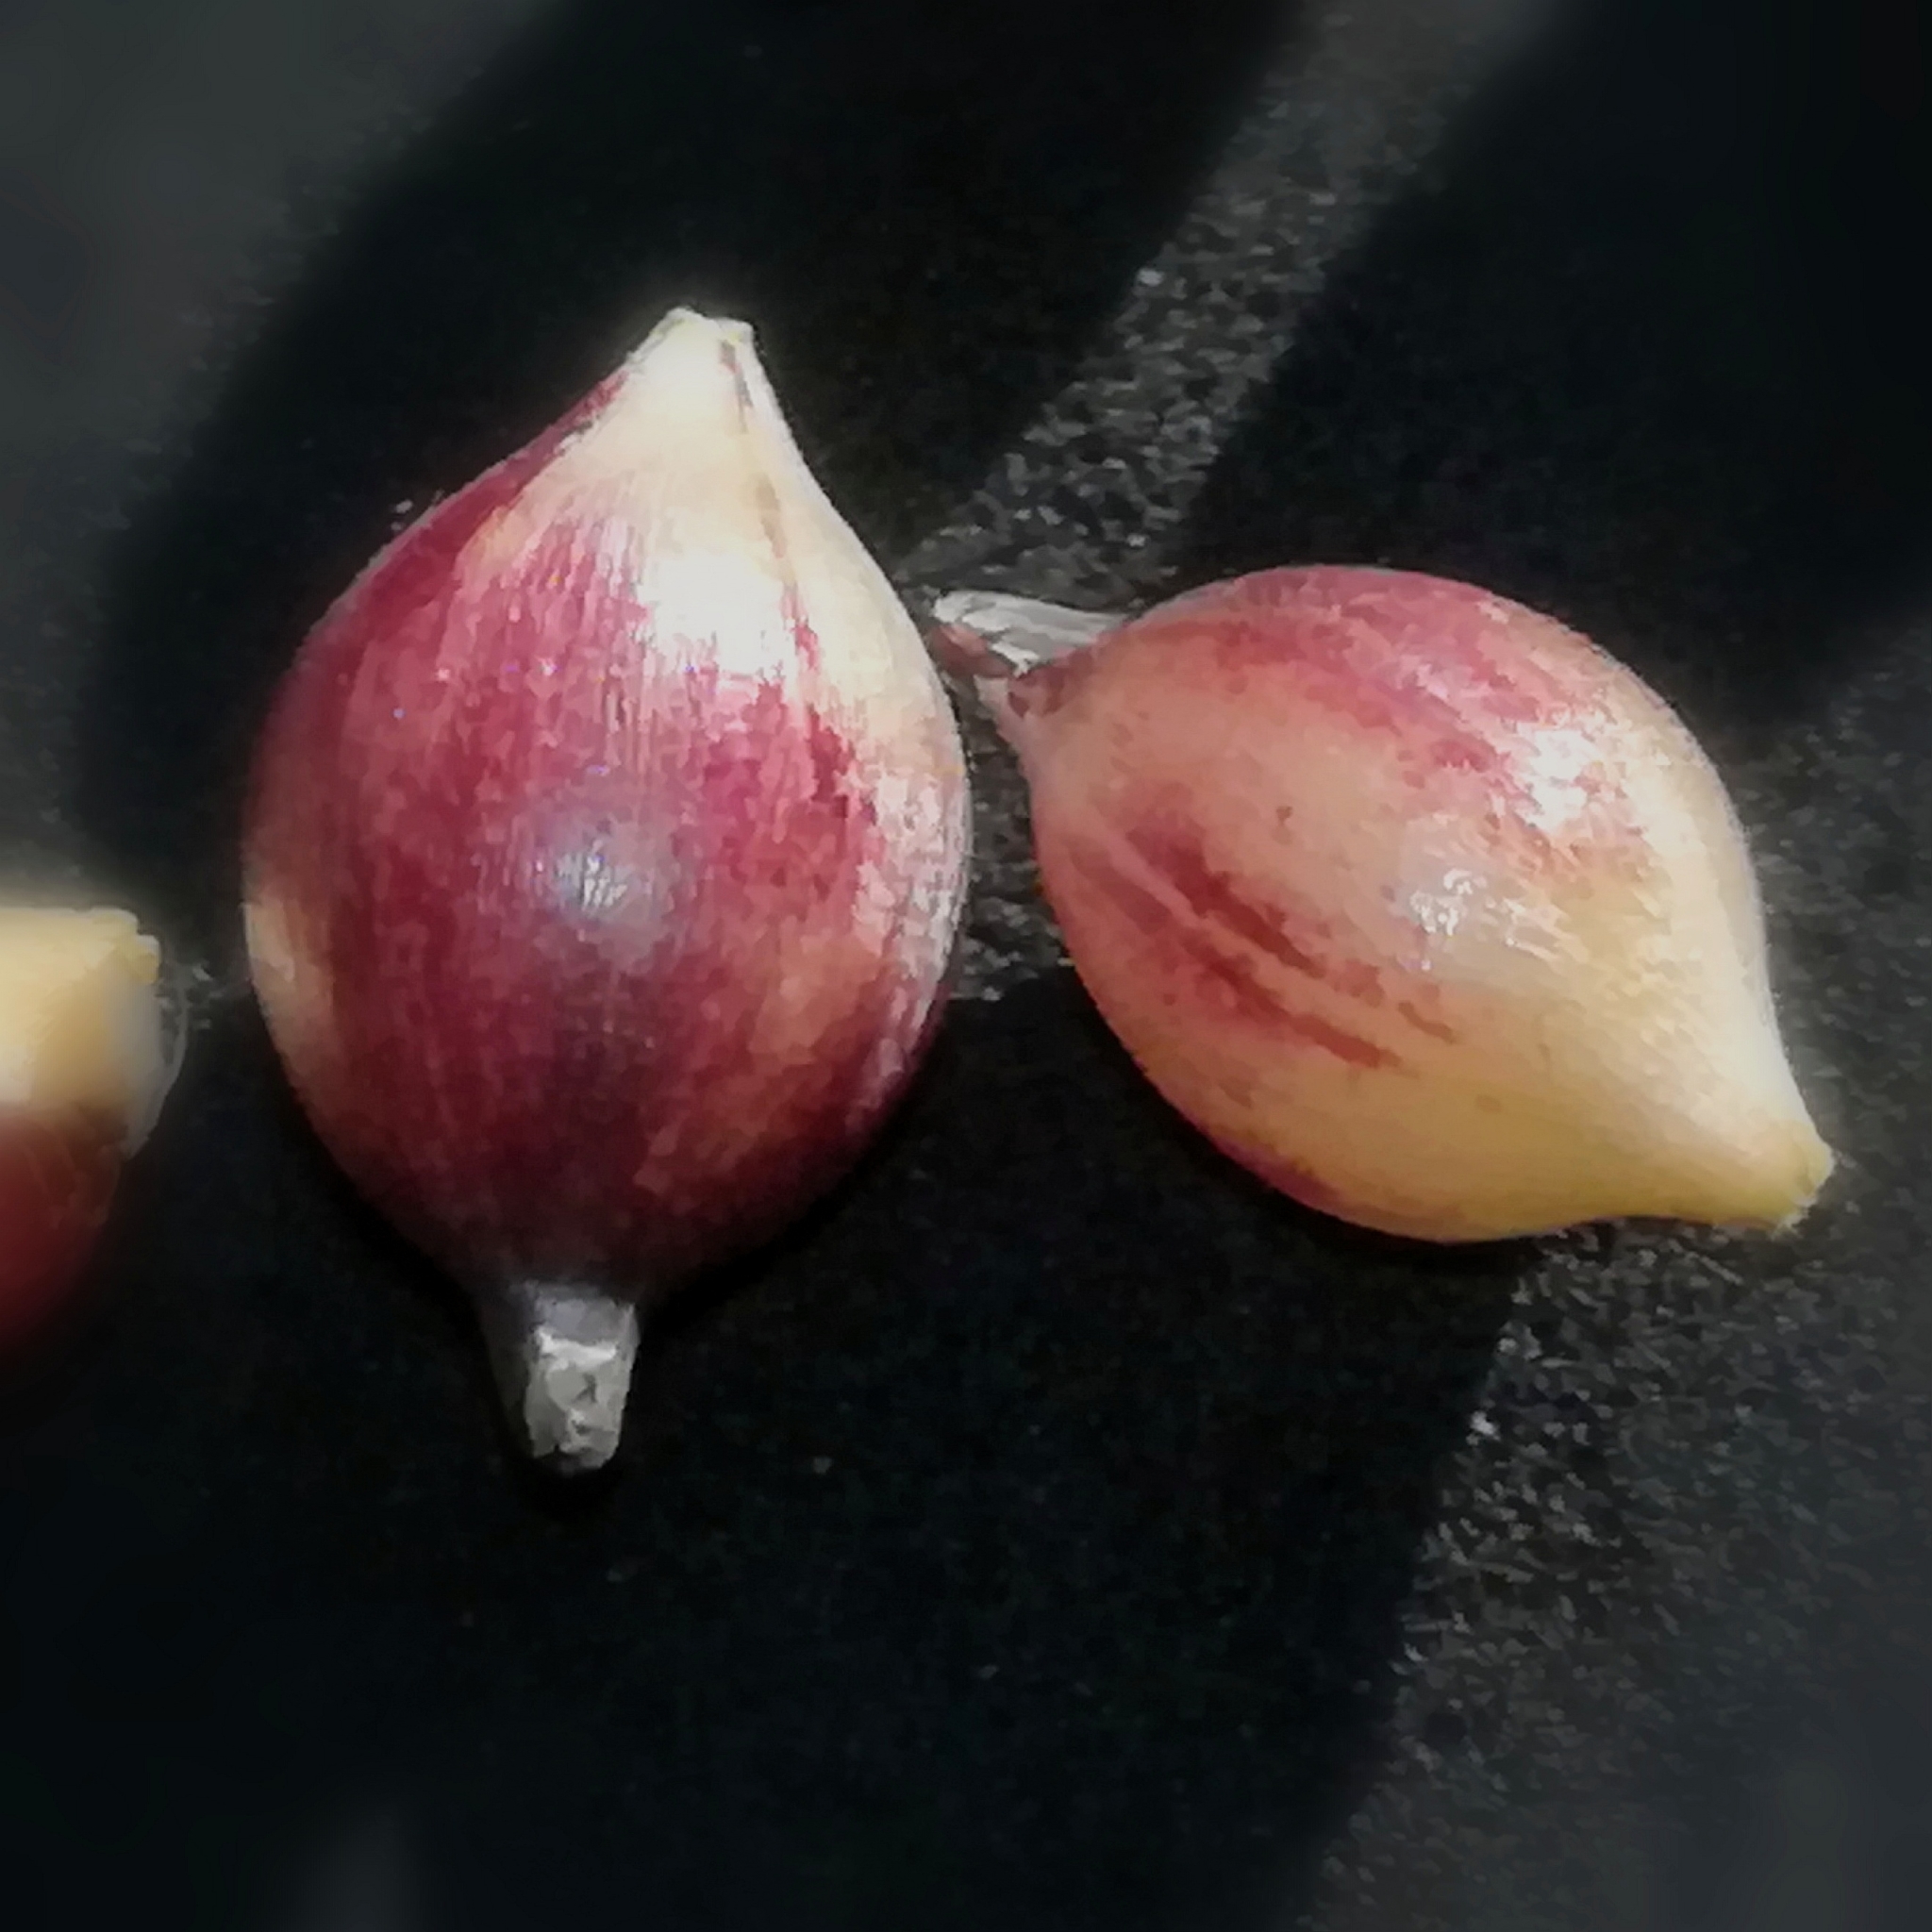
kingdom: Plantae
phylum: Tracheophyta
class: Liliopsida
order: Asparagales
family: Amaryllidaceae
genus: Allium
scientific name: Allium roseum
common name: Rosy garlic
